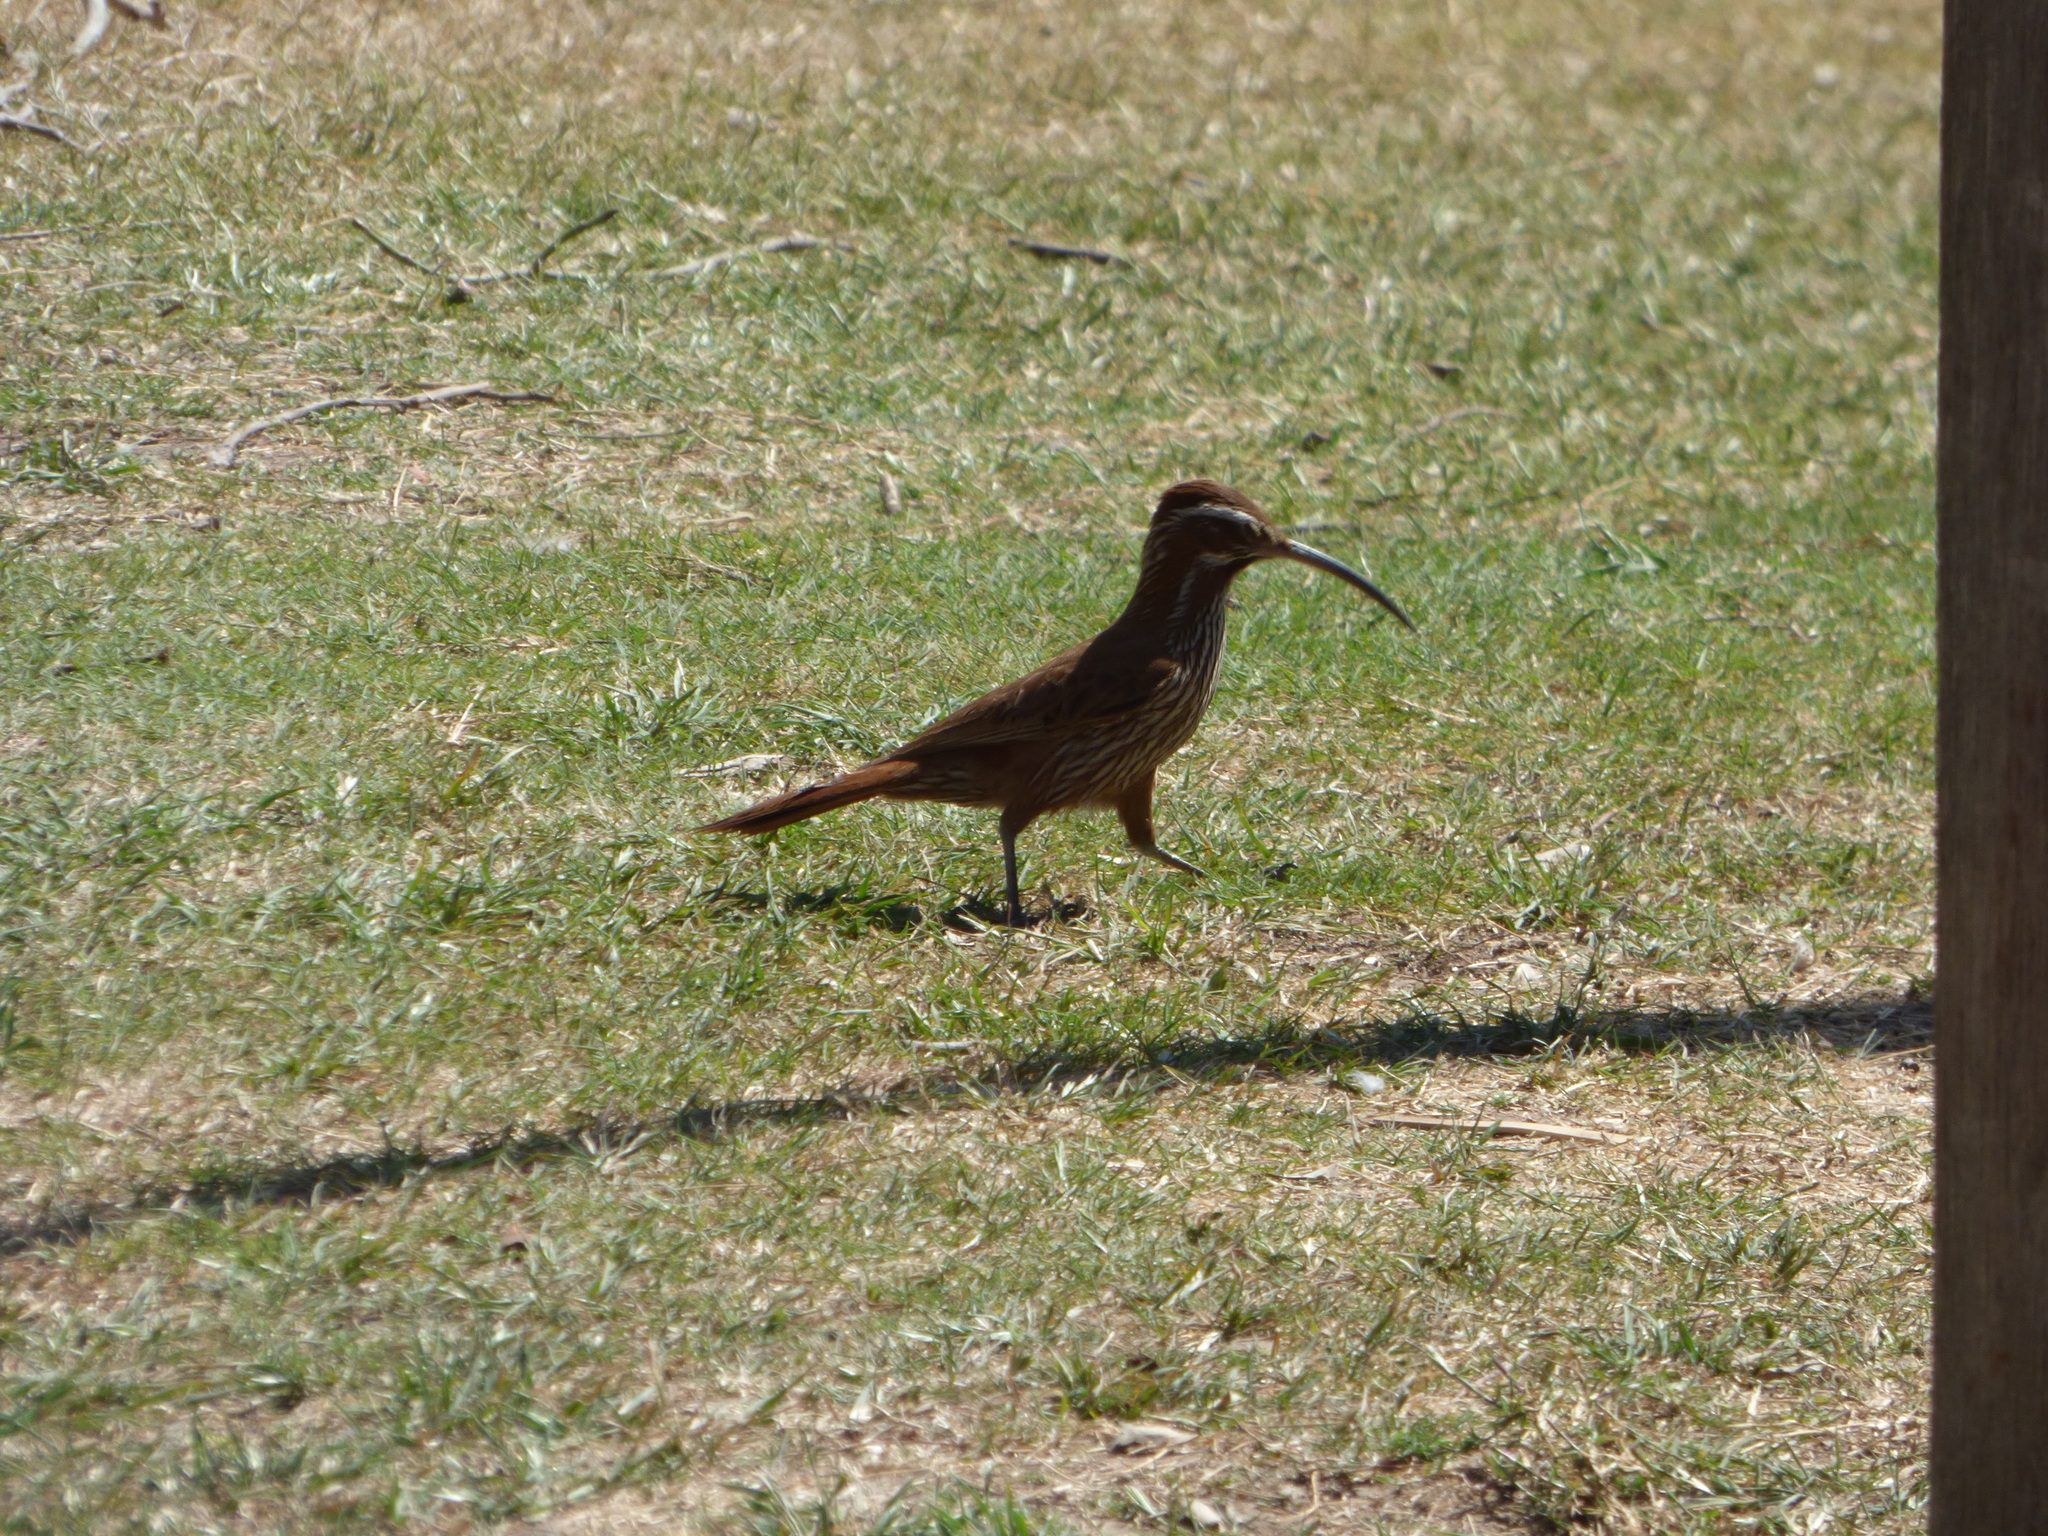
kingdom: Animalia
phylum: Chordata
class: Aves
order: Passeriformes
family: Furnariidae
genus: Drymornis
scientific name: Drymornis bridgesii
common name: Scimitar-billed woodcreeper
